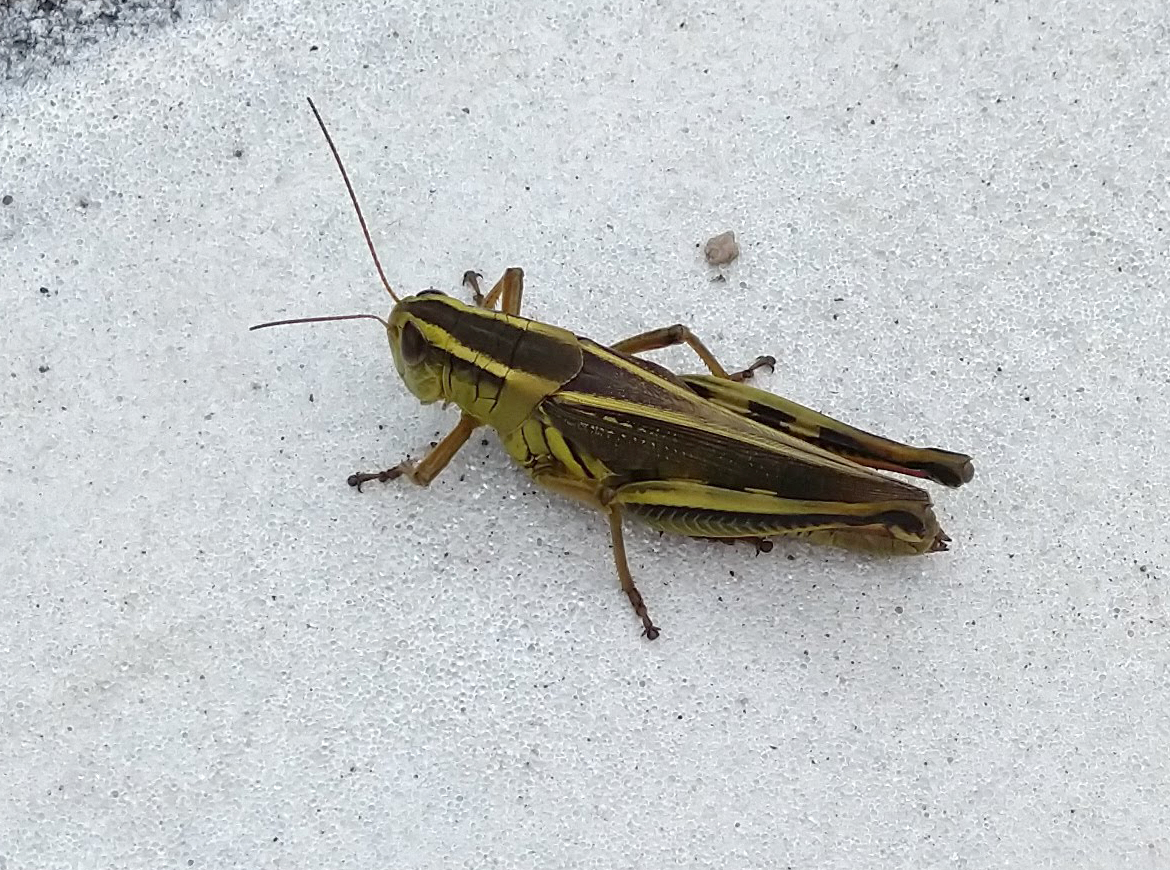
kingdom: Animalia
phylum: Arthropoda
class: Insecta
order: Orthoptera
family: Acrididae
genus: Melanoplus
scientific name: Melanoplus bivittatus
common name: Two-striped grasshopper
